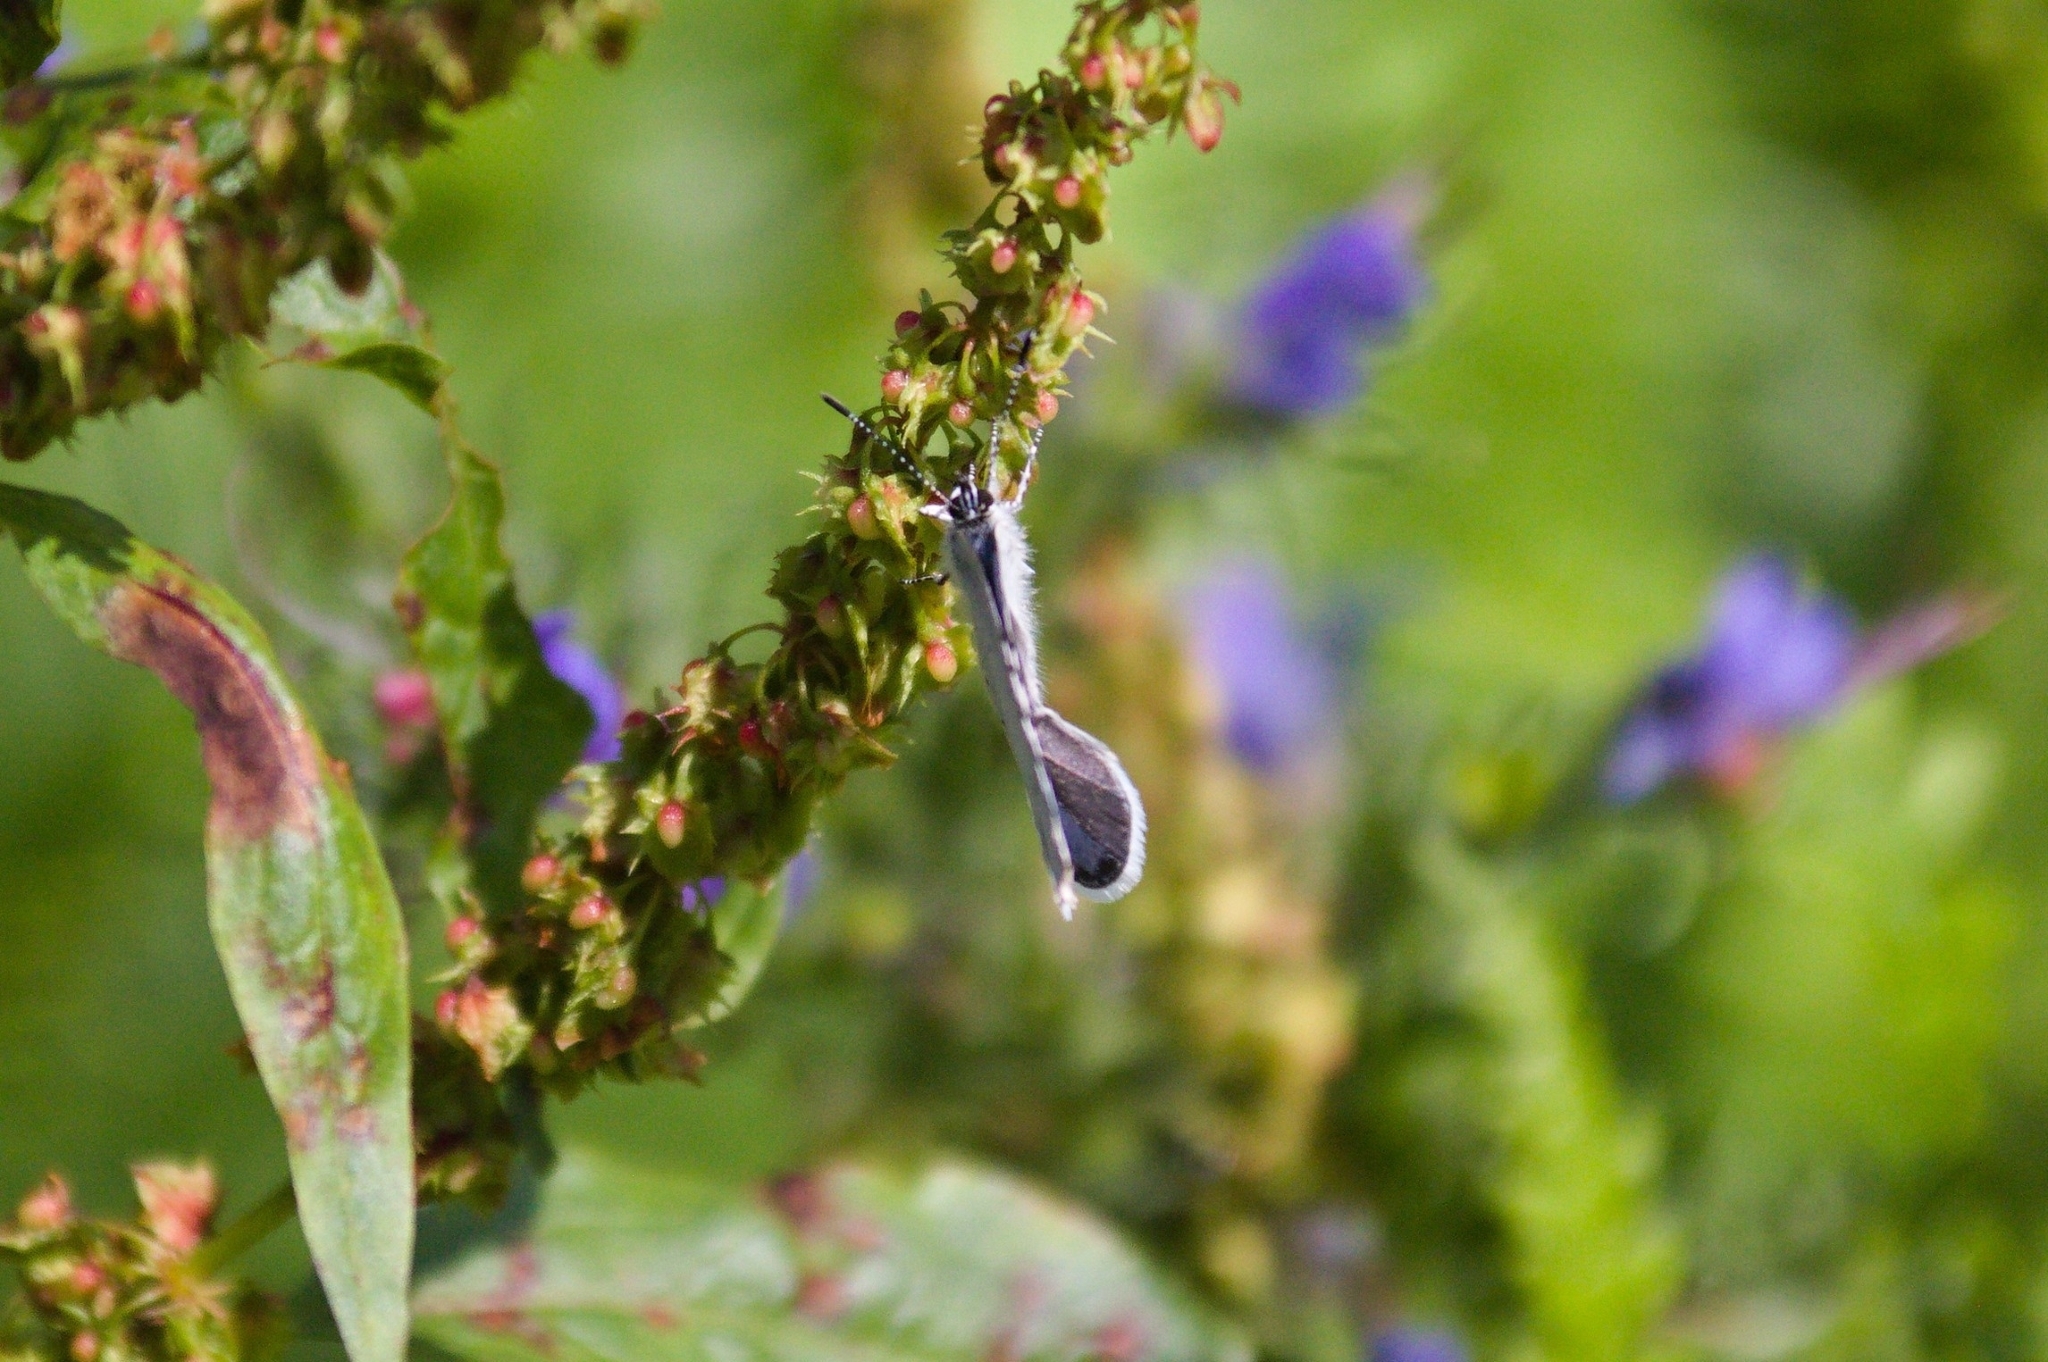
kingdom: Animalia
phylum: Arthropoda
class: Insecta
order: Lepidoptera
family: Lycaenidae
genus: Celastrina
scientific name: Celastrina argiolus
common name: Holly blue
